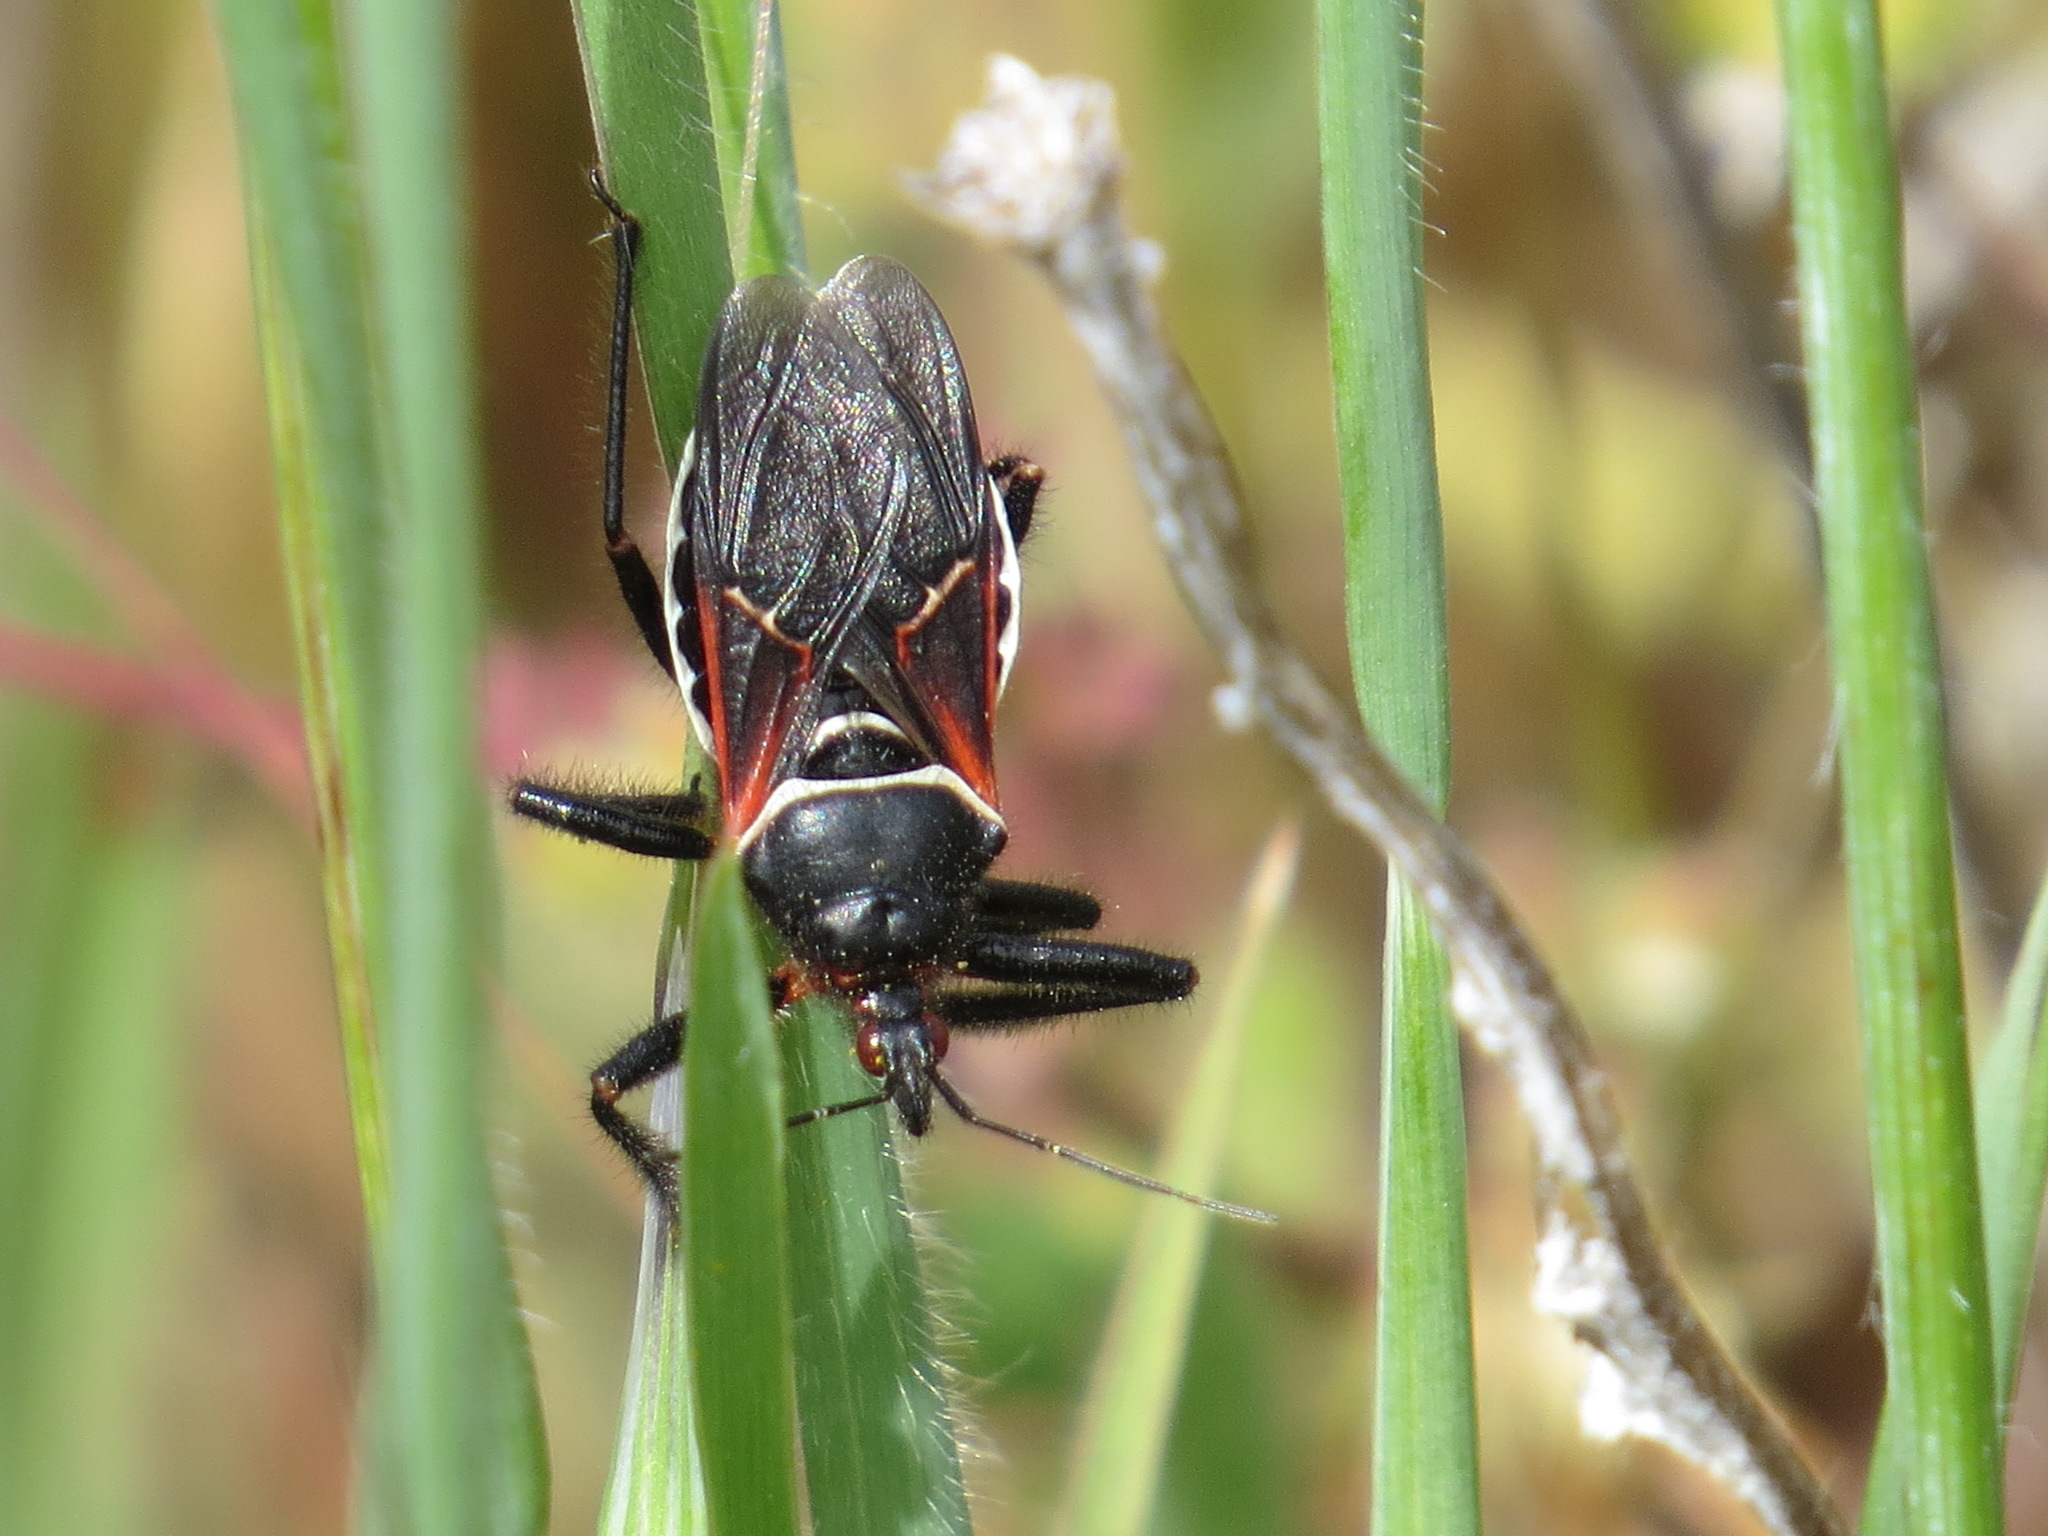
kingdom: Animalia
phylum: Arthropoda
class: Insecta
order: Hemiptera
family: Reduviidae
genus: Apiomerus
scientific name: Apiomerus californicus
